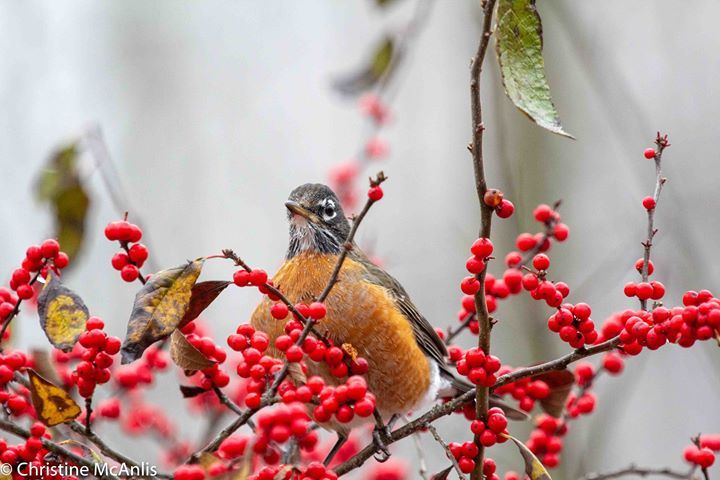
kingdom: Animalia
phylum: Chordata
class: Aves
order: Passeriformes
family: Turdidae
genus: Turdus
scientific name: Turdus migratorius
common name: American robin
